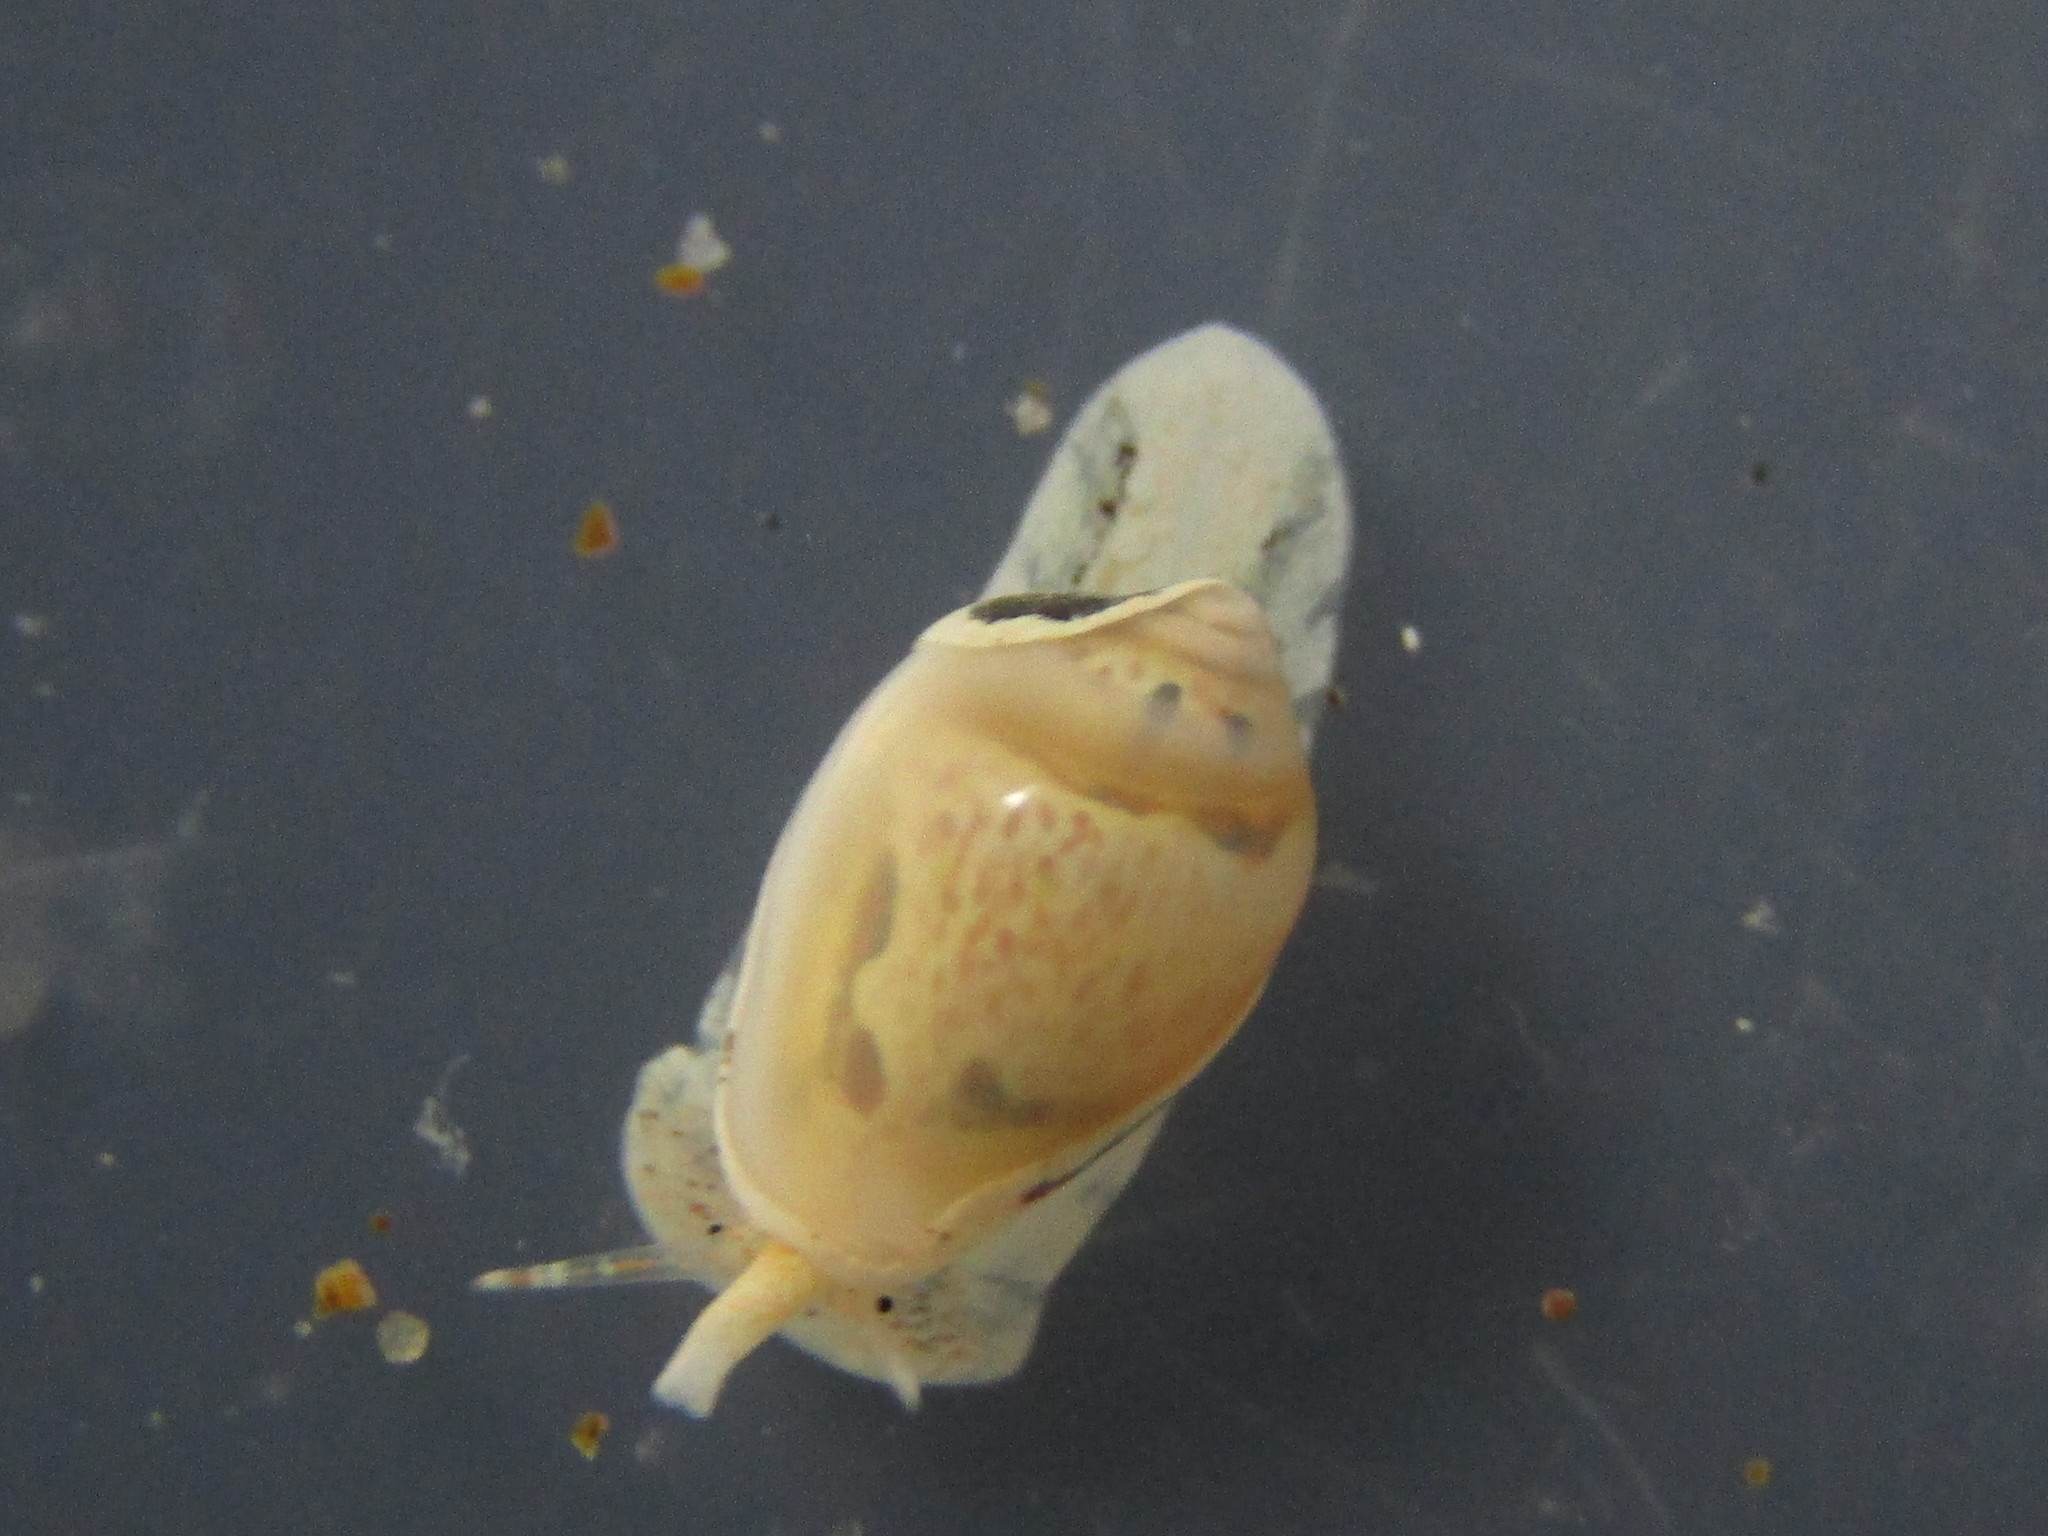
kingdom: Animalia
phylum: Mollusca
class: Gastropoda
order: Neogastropoda
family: Marginellidae
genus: Mesoginella
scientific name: Mesoginella
